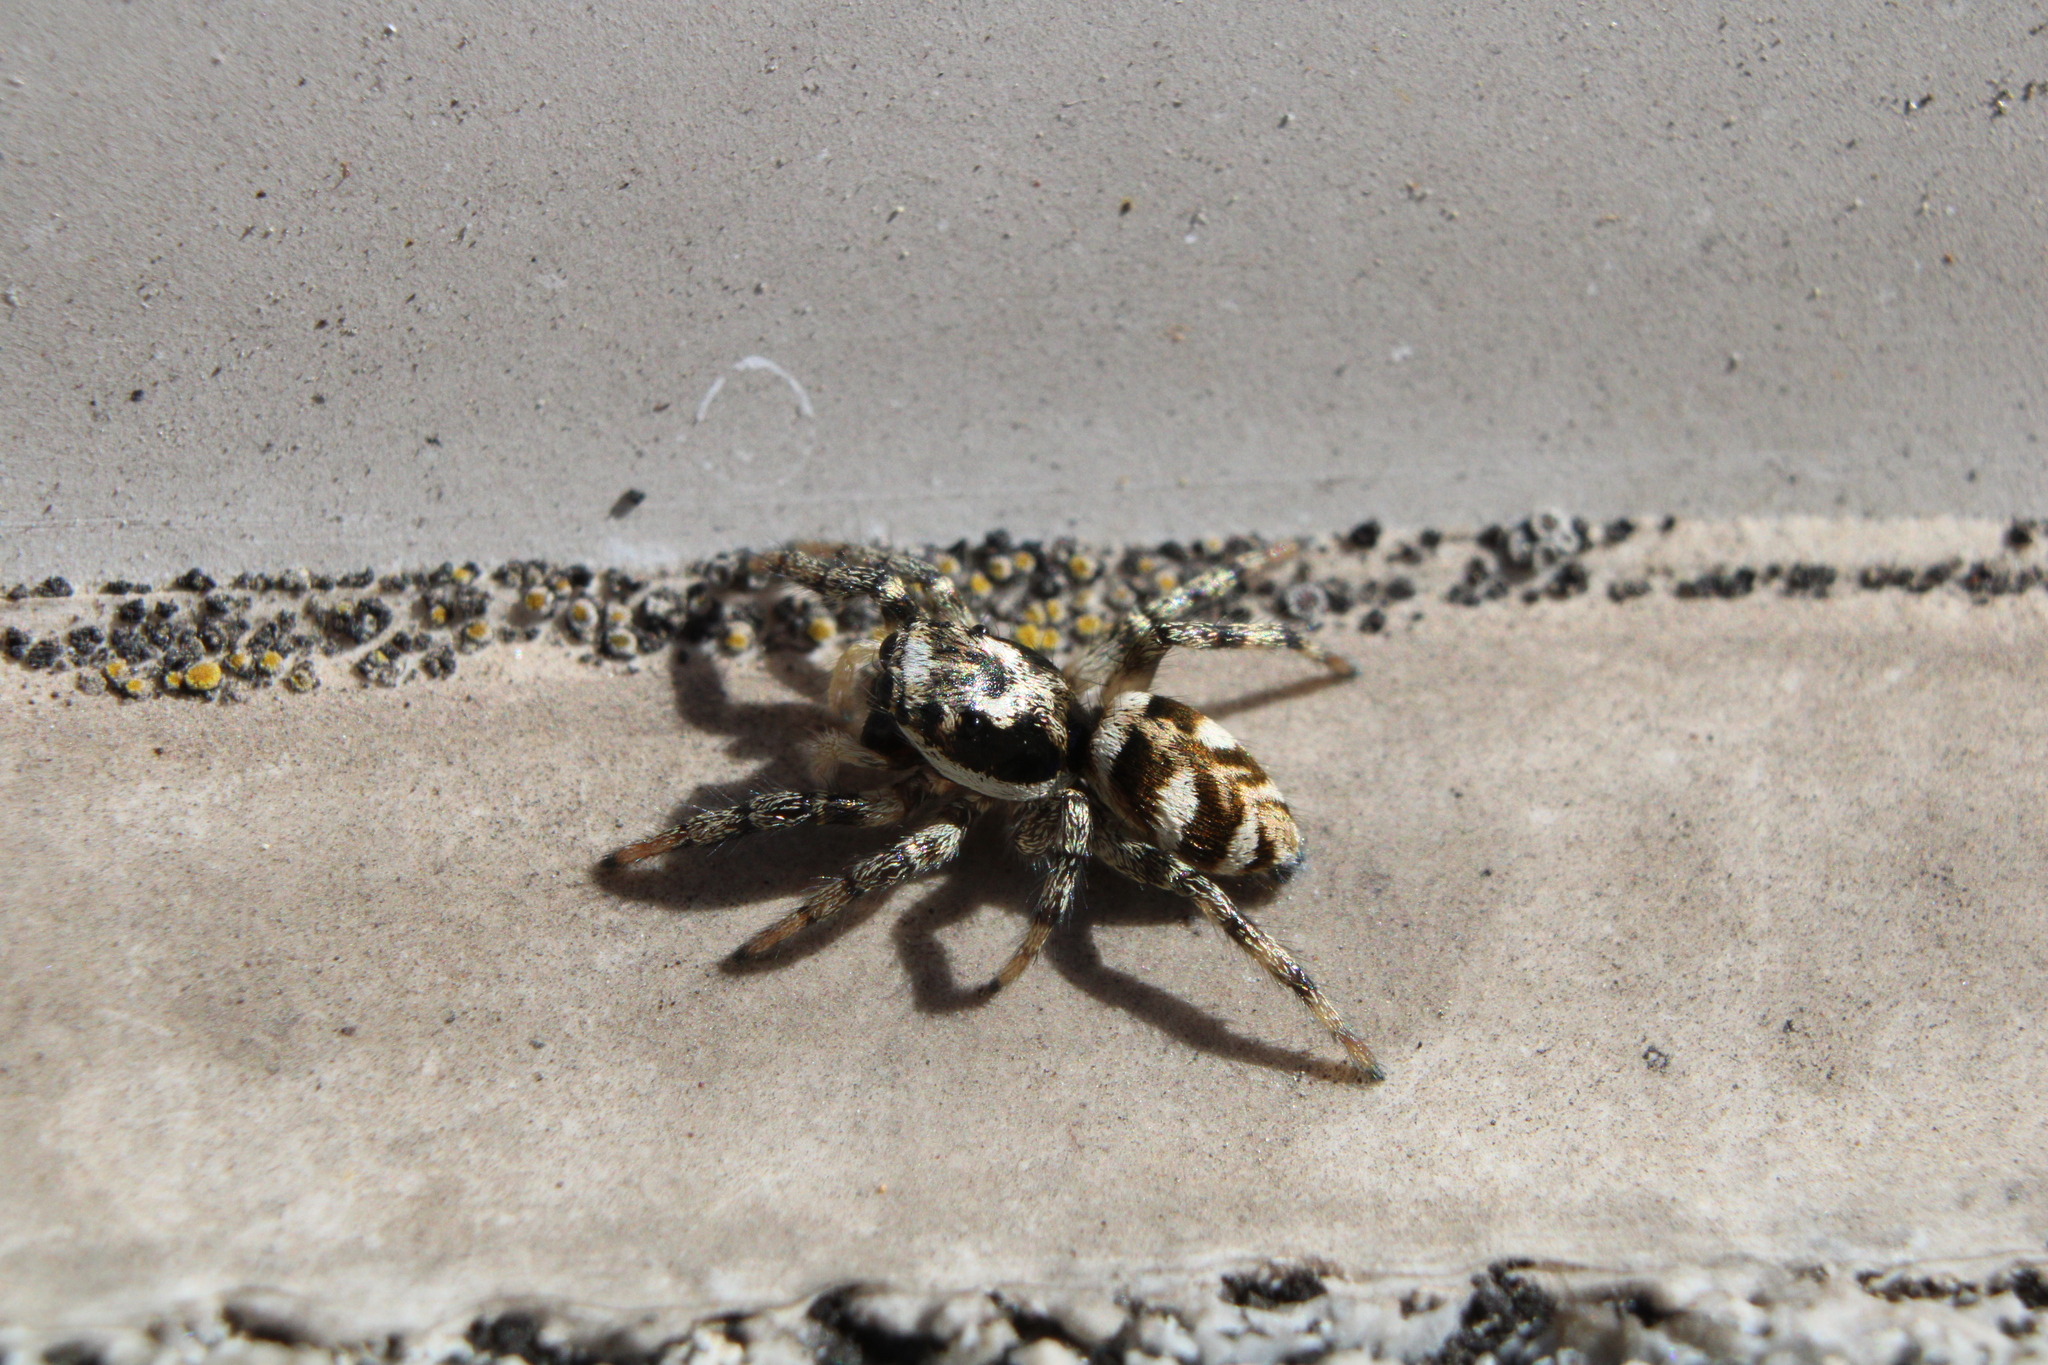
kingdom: Animalia
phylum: Arthropoda
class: Arachnida
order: Araneae
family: Salticidae
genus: Salticus
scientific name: Salticus scenicus
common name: Zebra jumper
